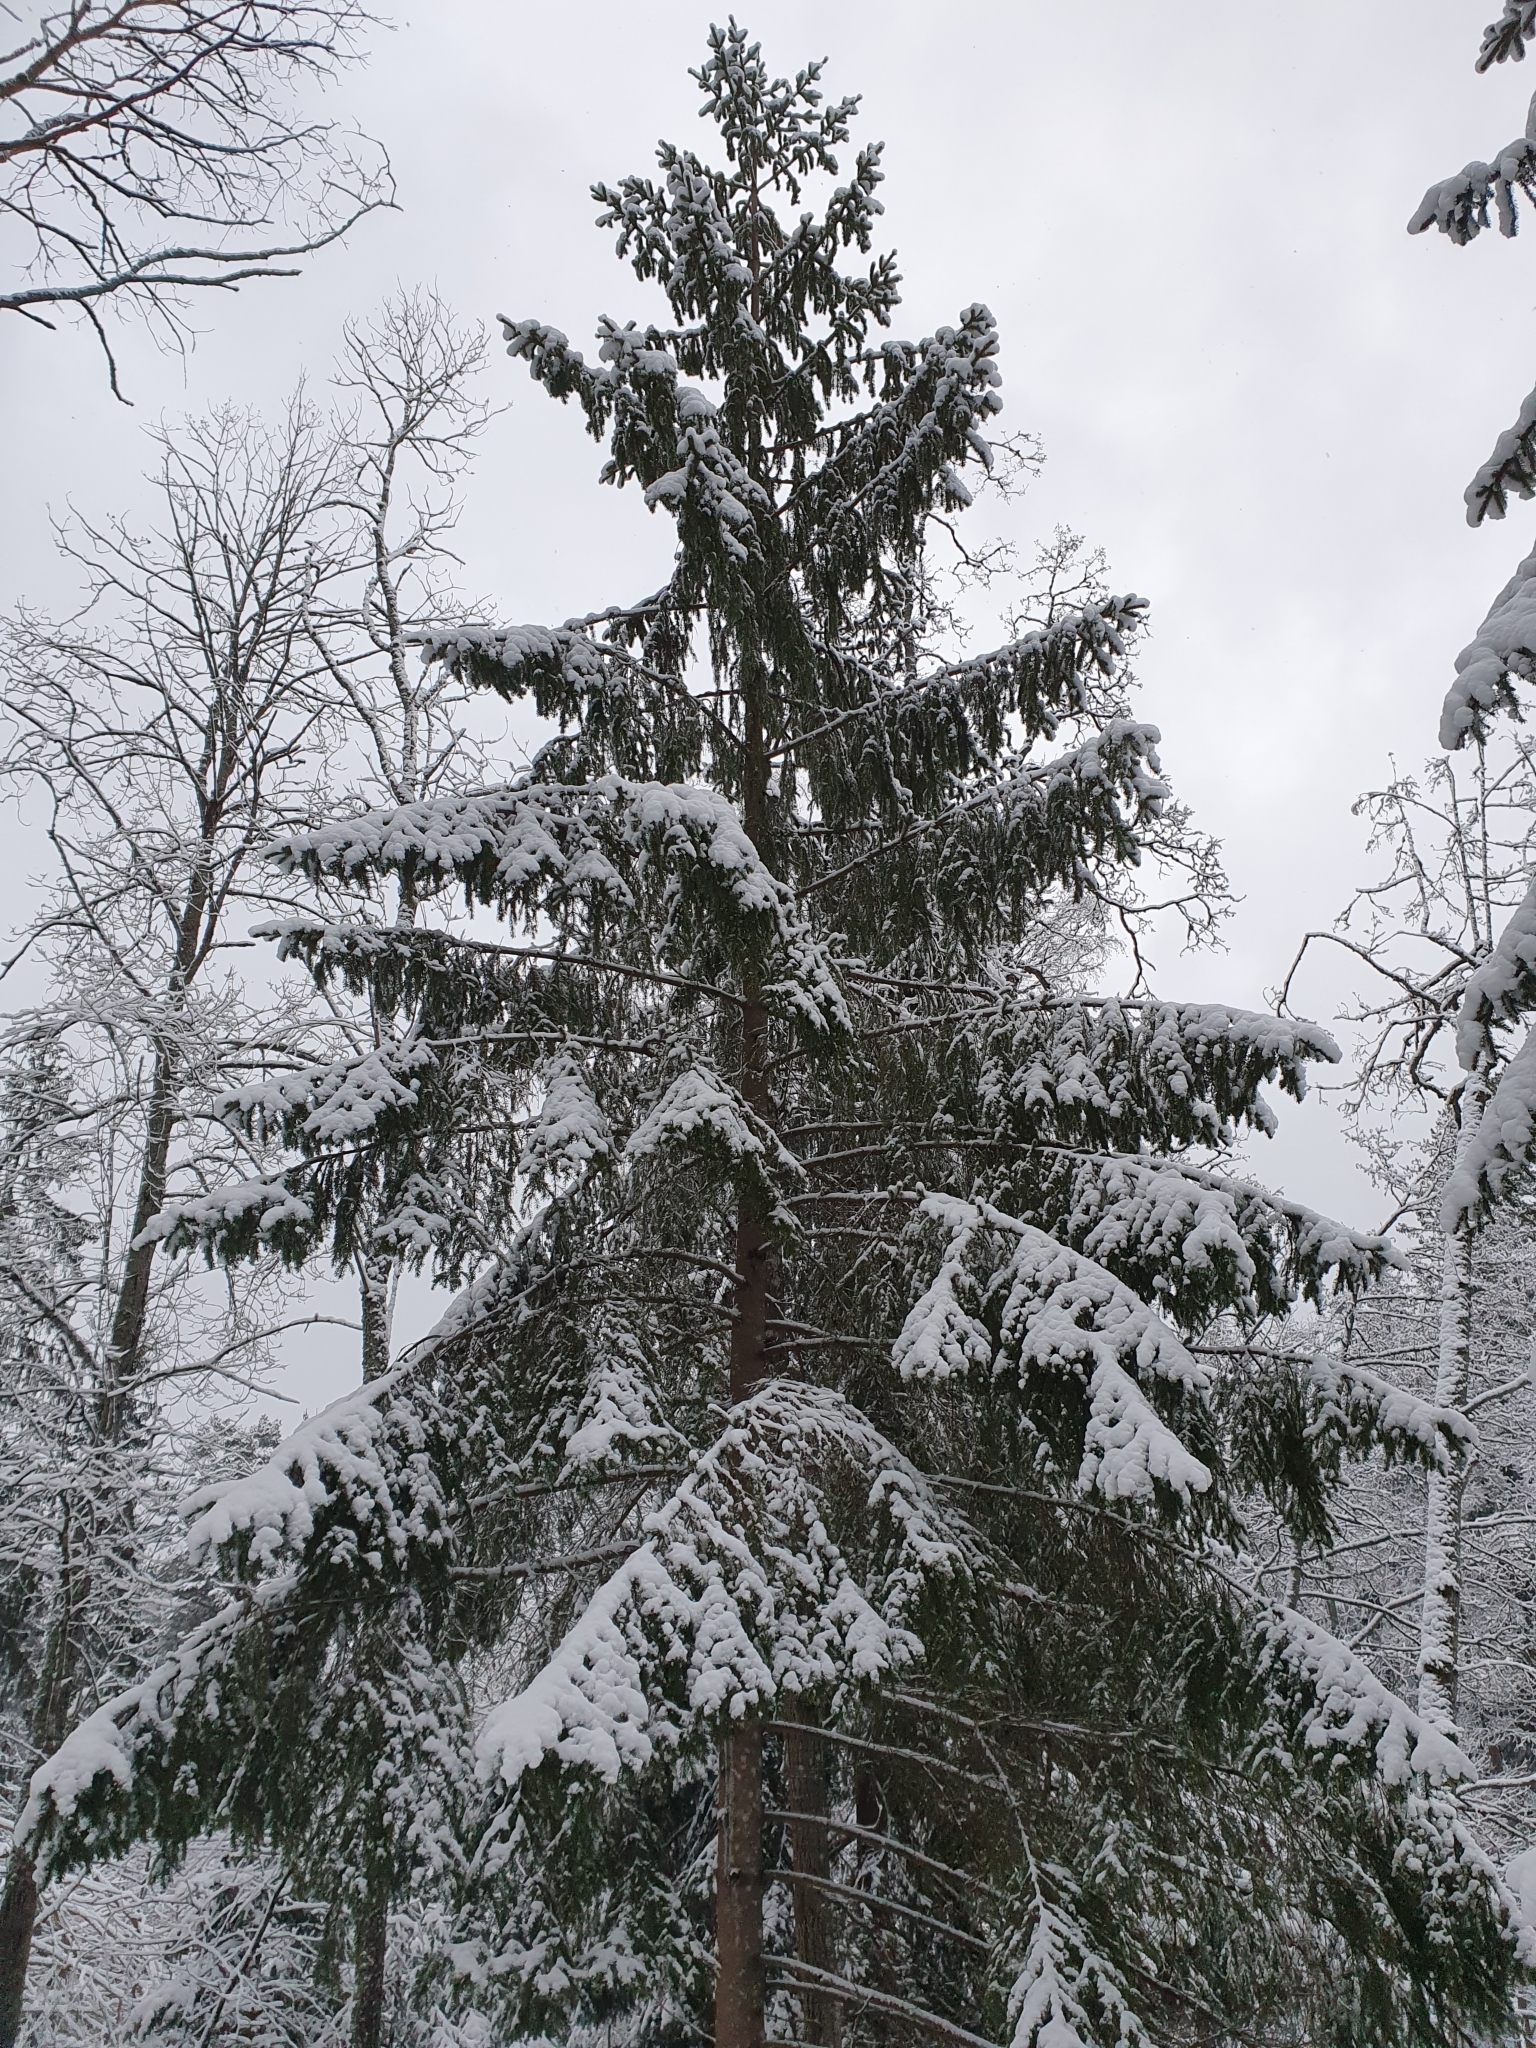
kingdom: Plantae
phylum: Tracheophyta
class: Pinopsida
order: Pinales
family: Pinaceae
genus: Picea
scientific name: Picea abies
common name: Norway spruce
